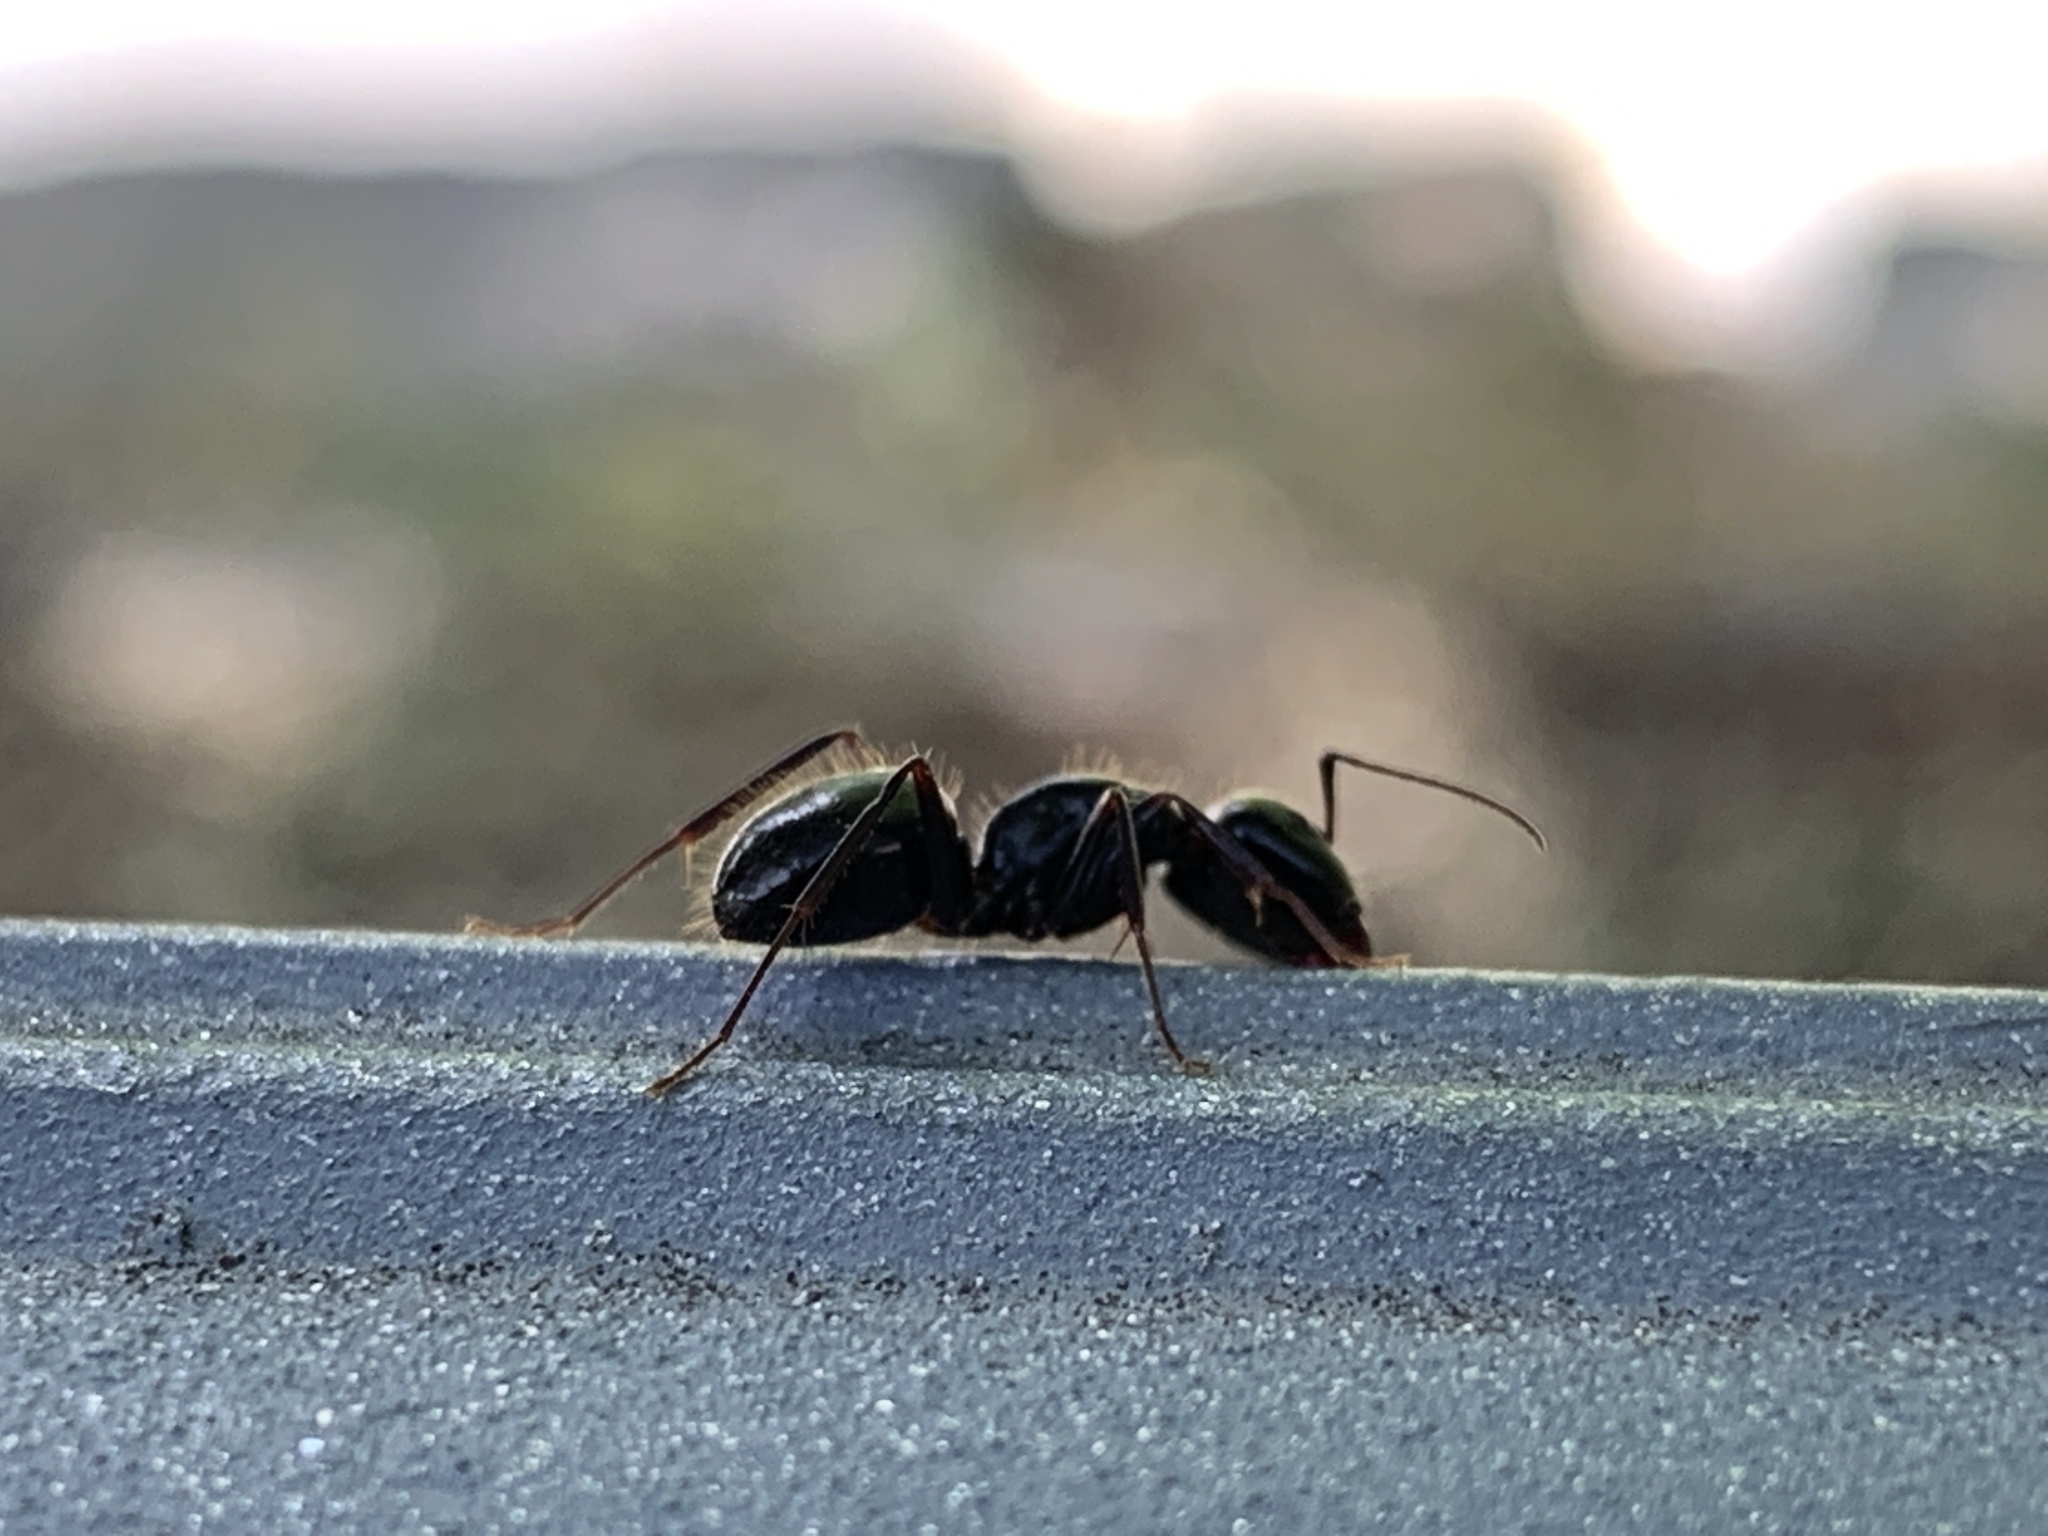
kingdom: Animalia
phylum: Arthropoda
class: Insecta
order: Hymenoptera
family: Formicidae
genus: Camponotus
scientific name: Camponotus vagus
